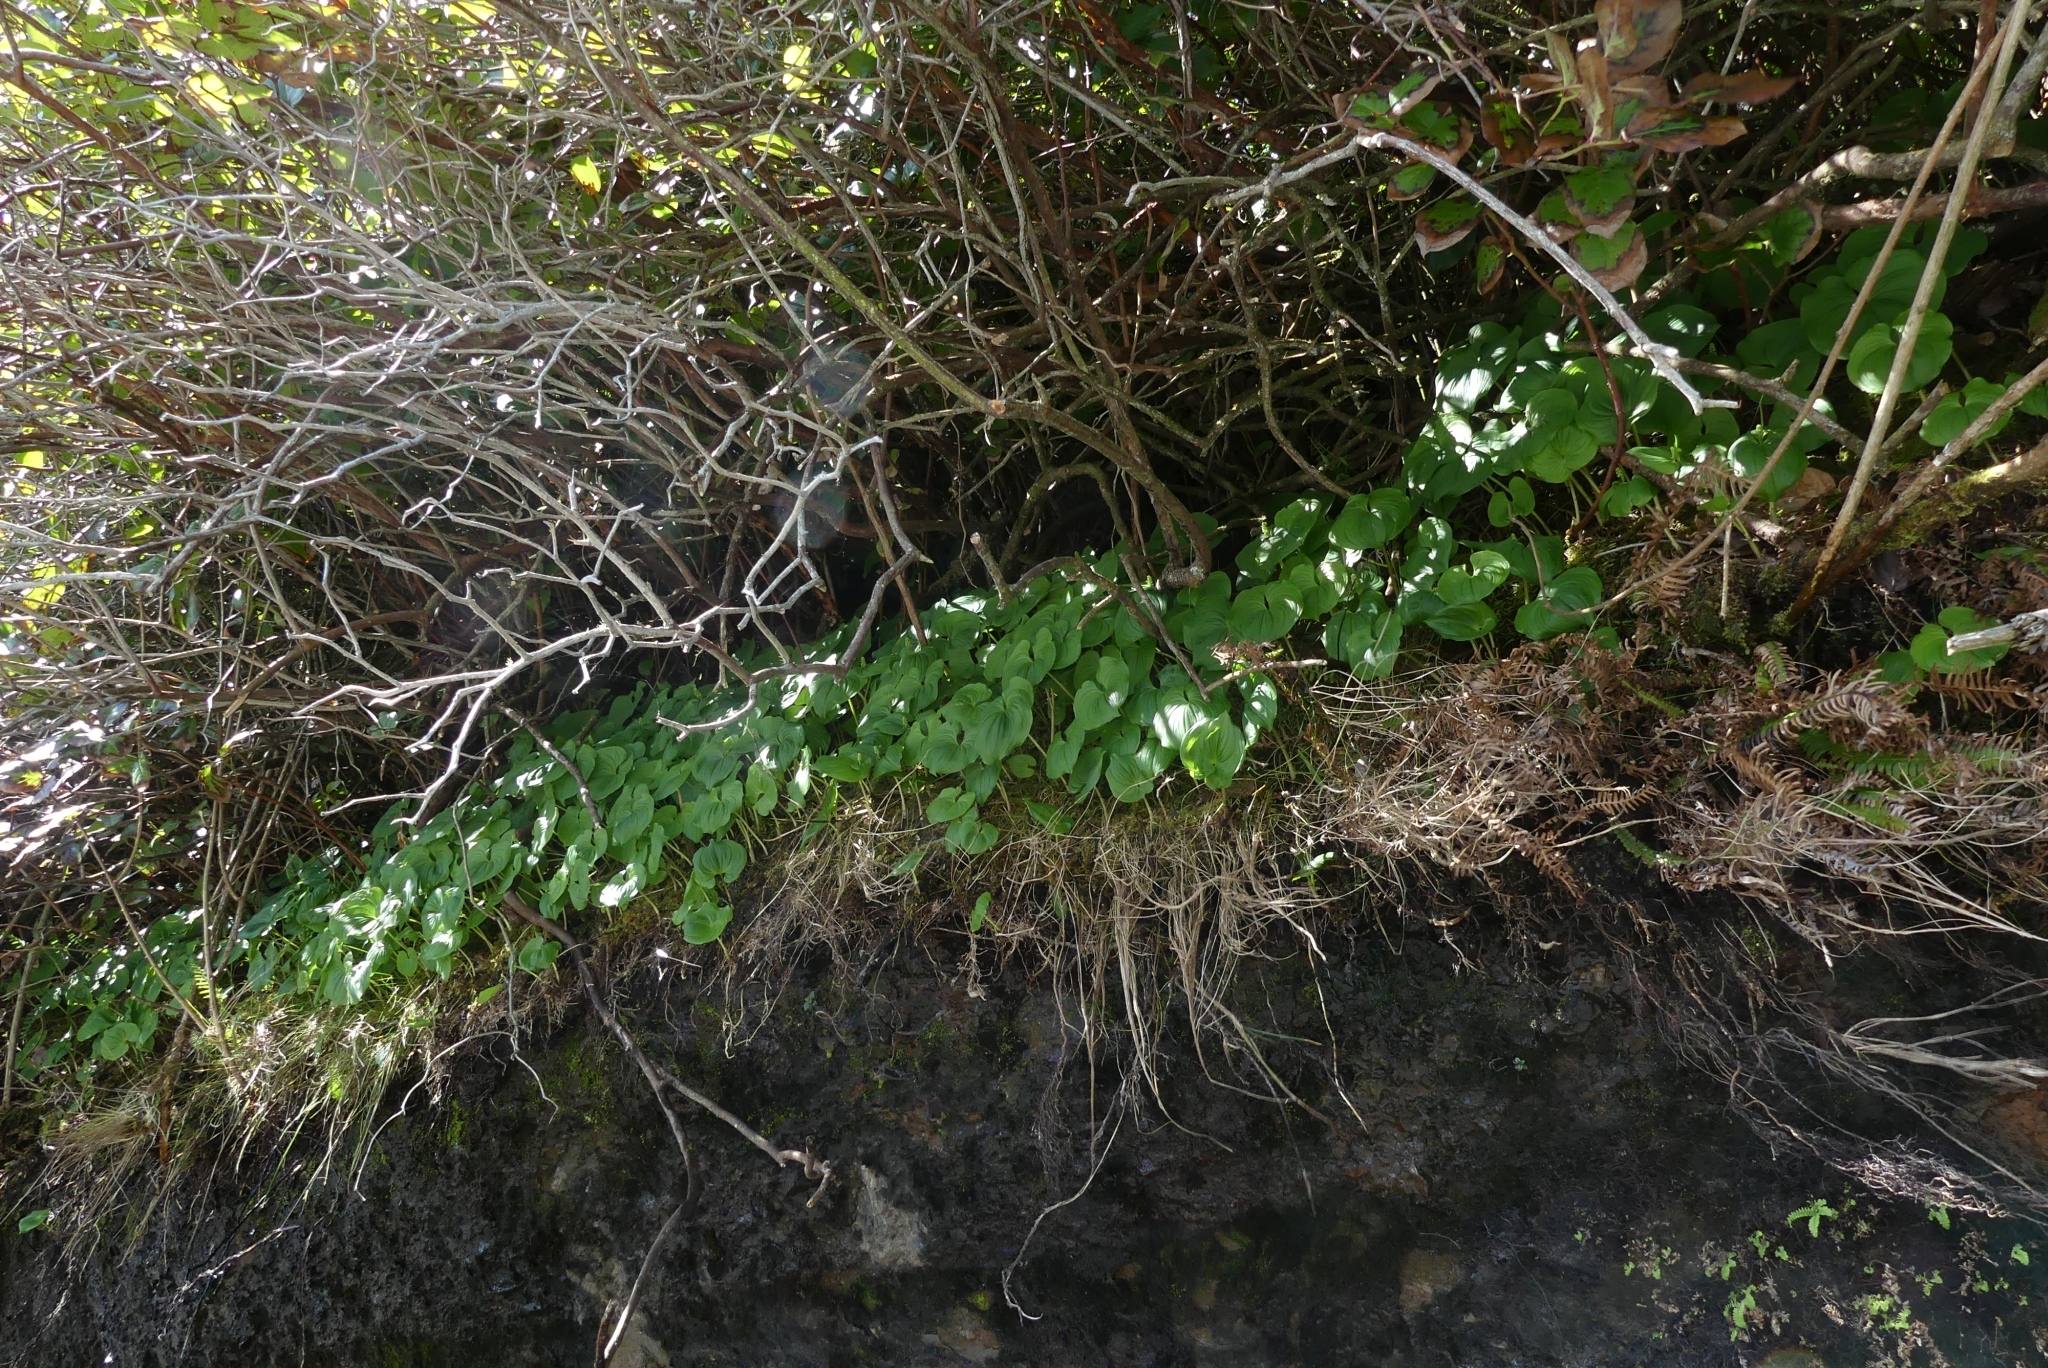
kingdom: Plantae
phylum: Tracheophyta
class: Liliopsida
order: Asparagales
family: Asparagaceae
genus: Maianthemum
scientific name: Maianthemum dilatatum
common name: False lily-of-the-valley
